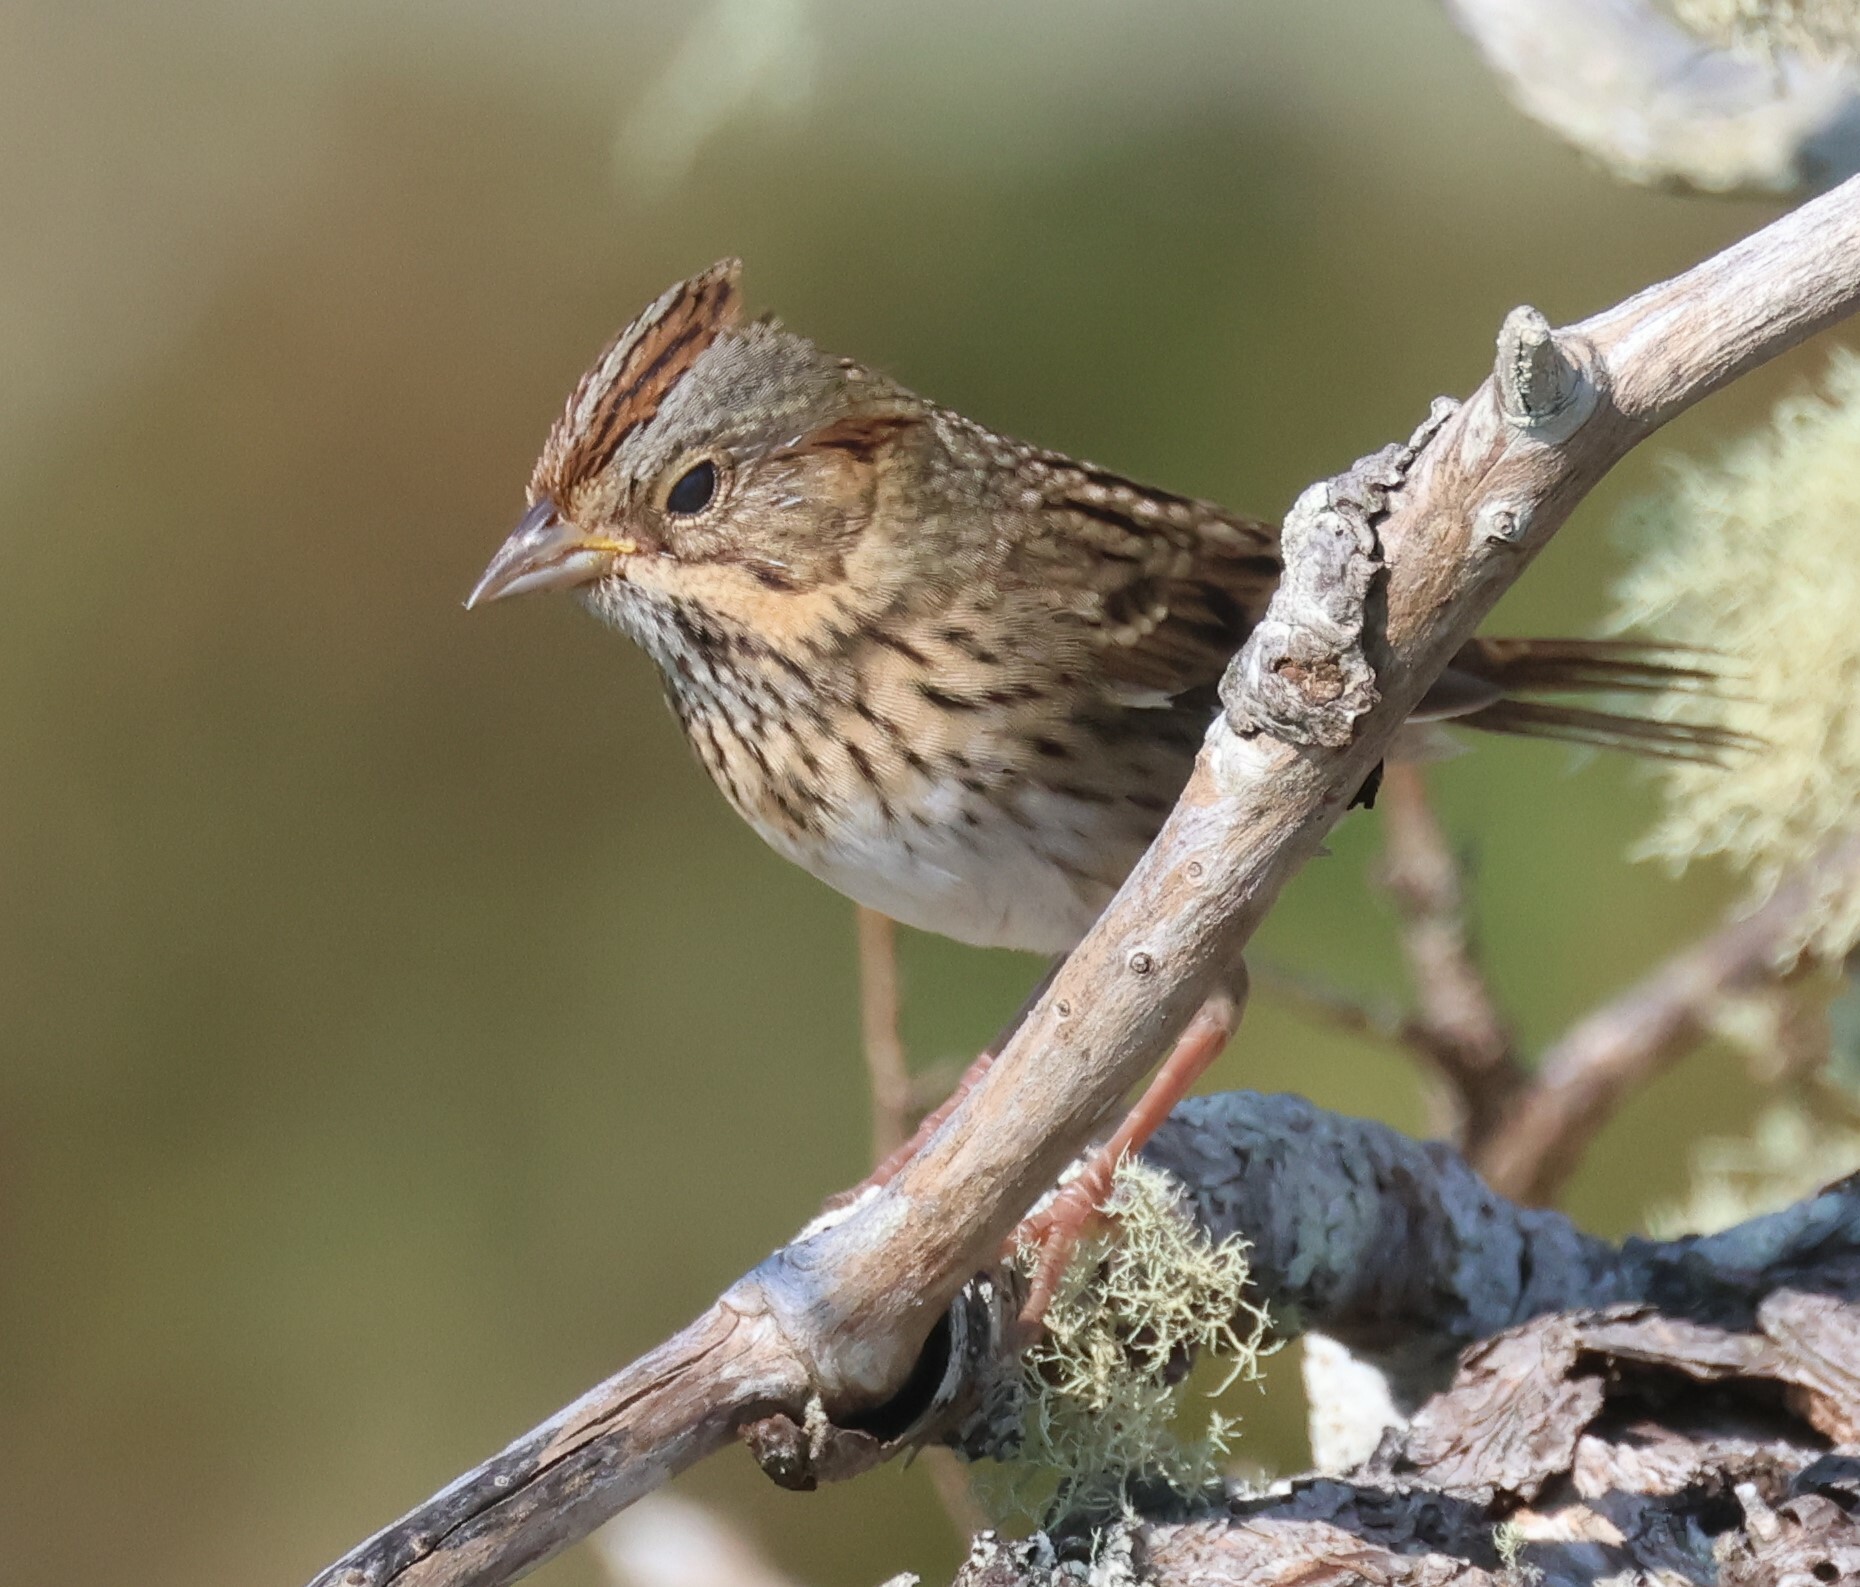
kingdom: Animalia
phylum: Chordata
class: Aves
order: Passeriformes
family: Passerellidae
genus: Melospiza
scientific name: Melospiza lincolnii
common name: Lincoln's sparrow
